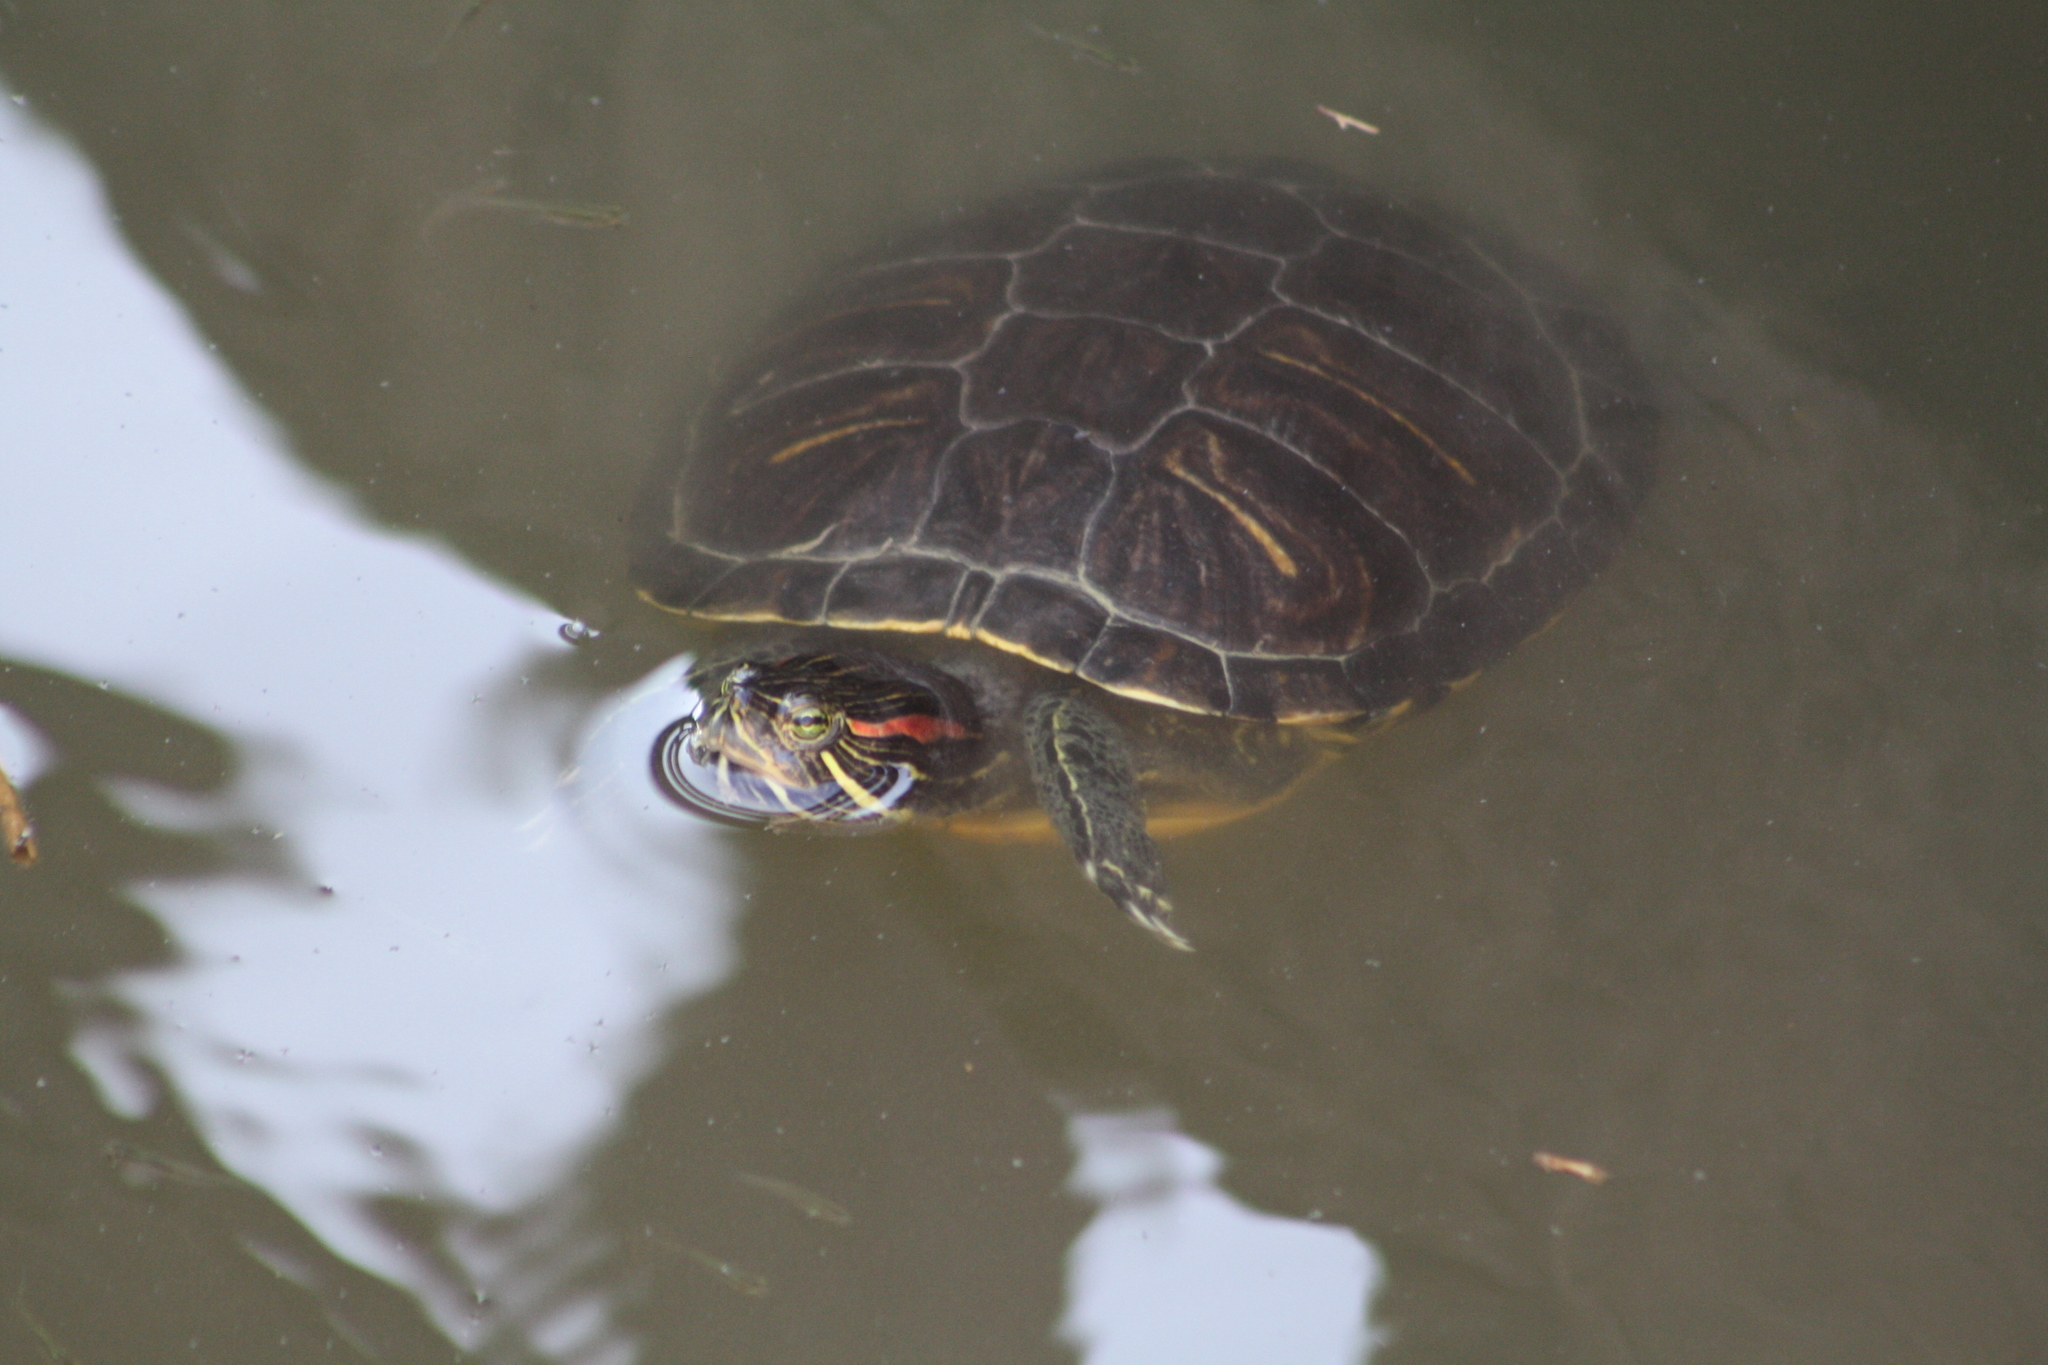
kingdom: Animalia
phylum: Chordata
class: Testudines
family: Emydidae
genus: Trachemys
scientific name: Trachemys scripta
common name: Slider
